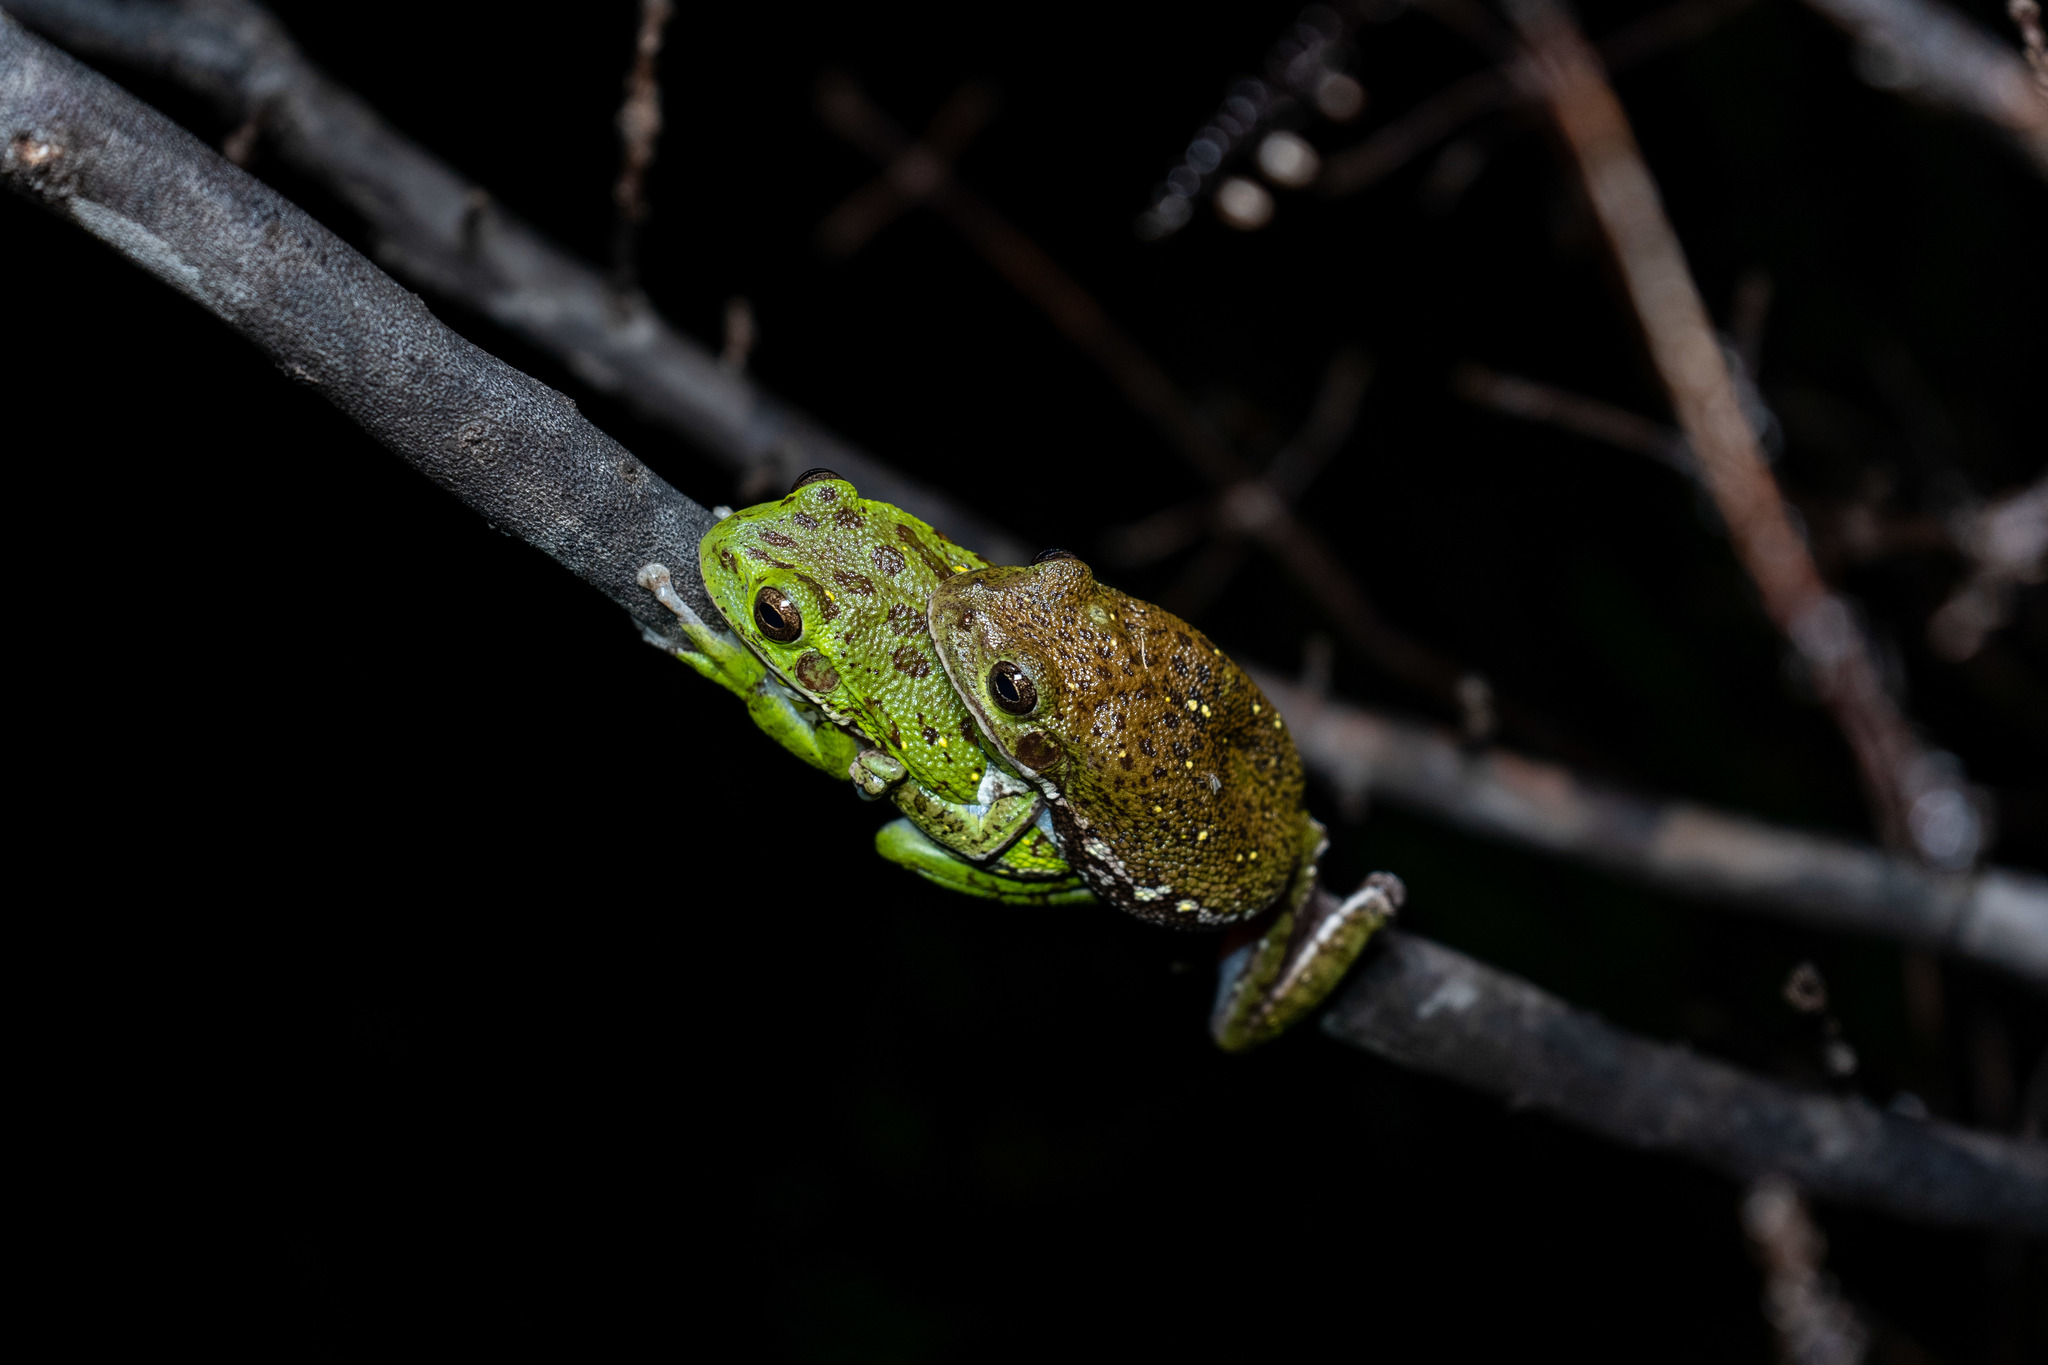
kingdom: Animalia
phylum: Chordata
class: Amphibia
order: Anura
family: Hylidae
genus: Dryophytes
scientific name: Dryophytes gratiosus
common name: Barking treefrog
